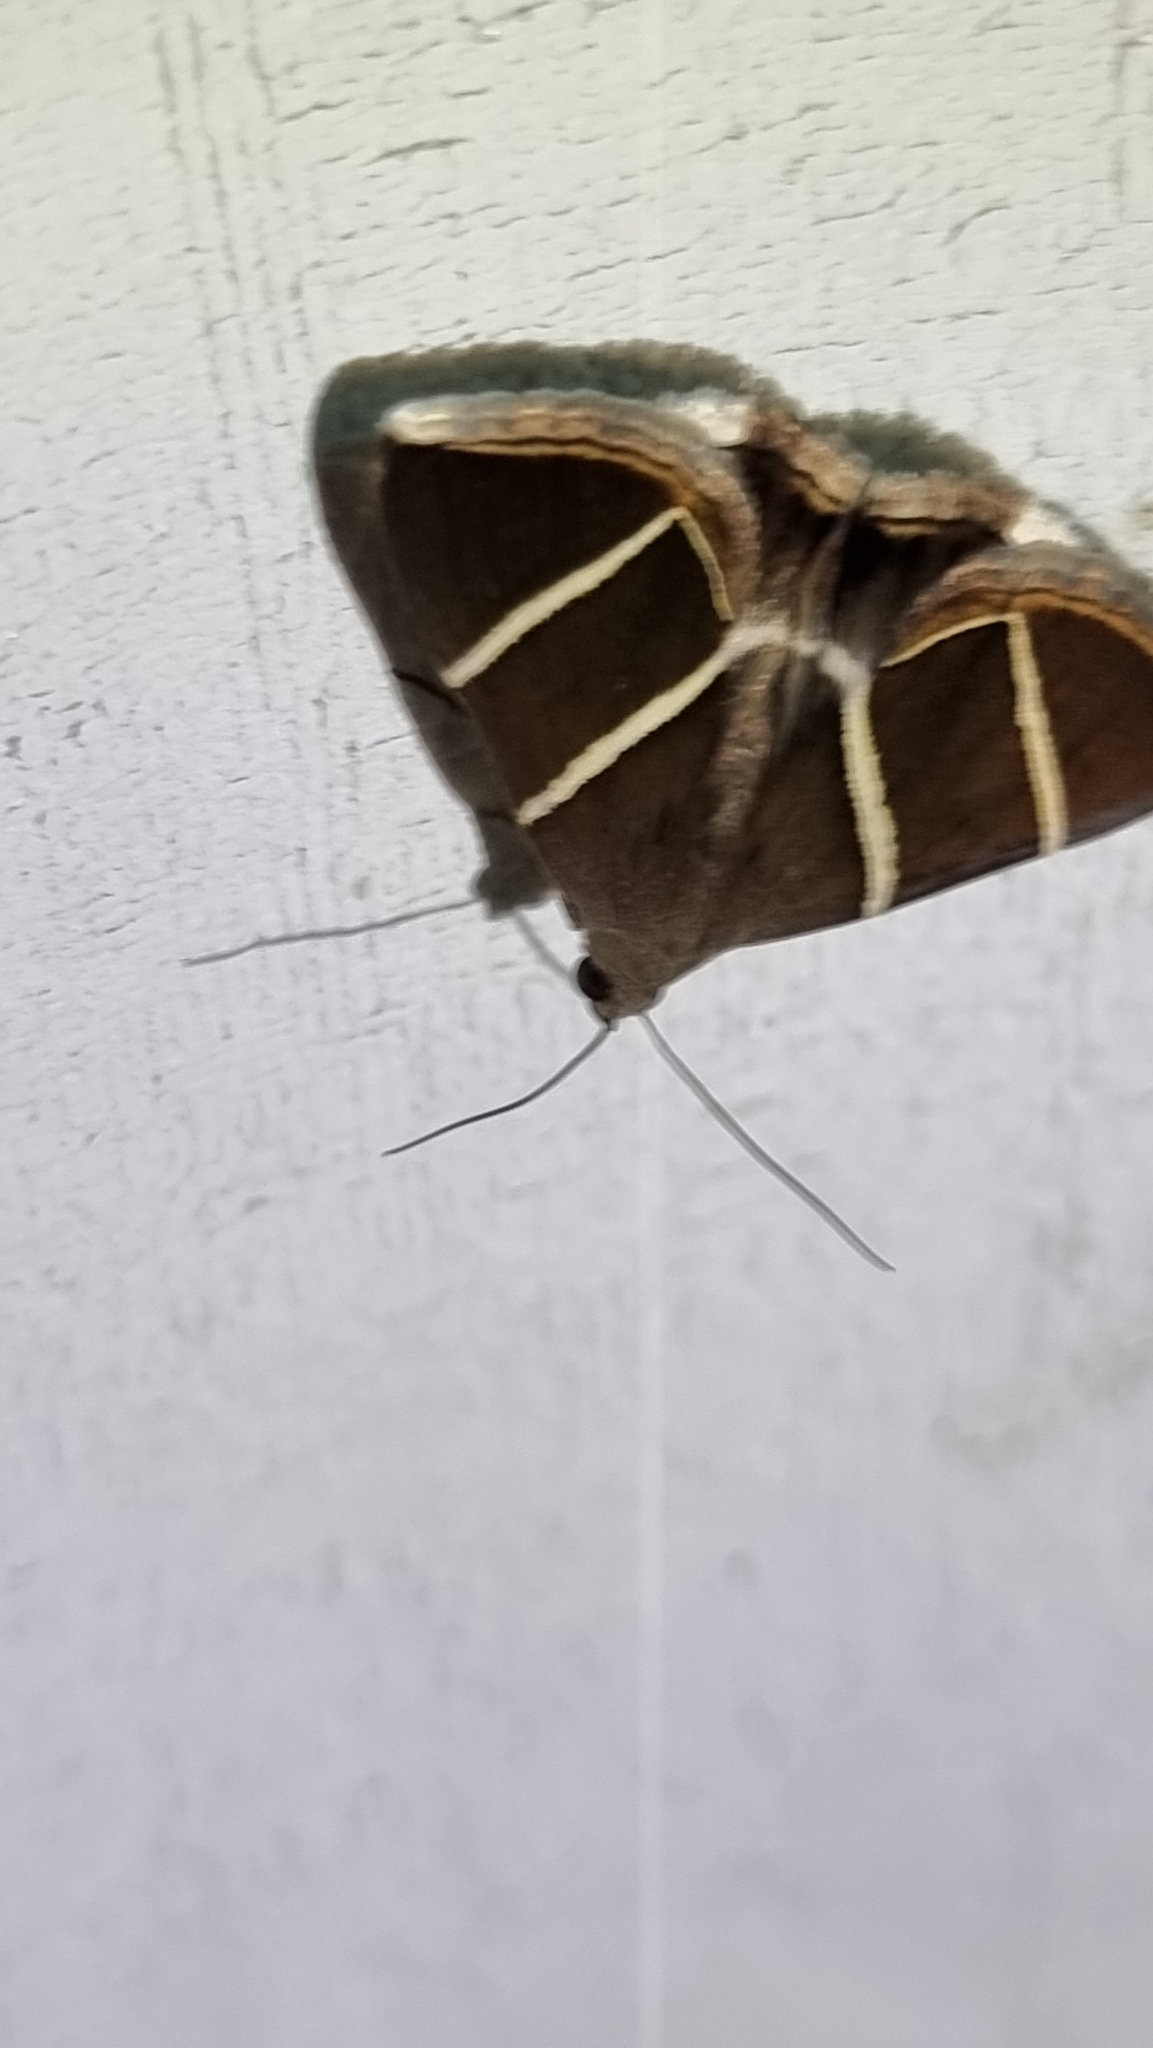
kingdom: Animalia
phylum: Arthropoda
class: Insecta
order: Lepidoptera
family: Erebidae
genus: Grammodes
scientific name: Grammodes justa
